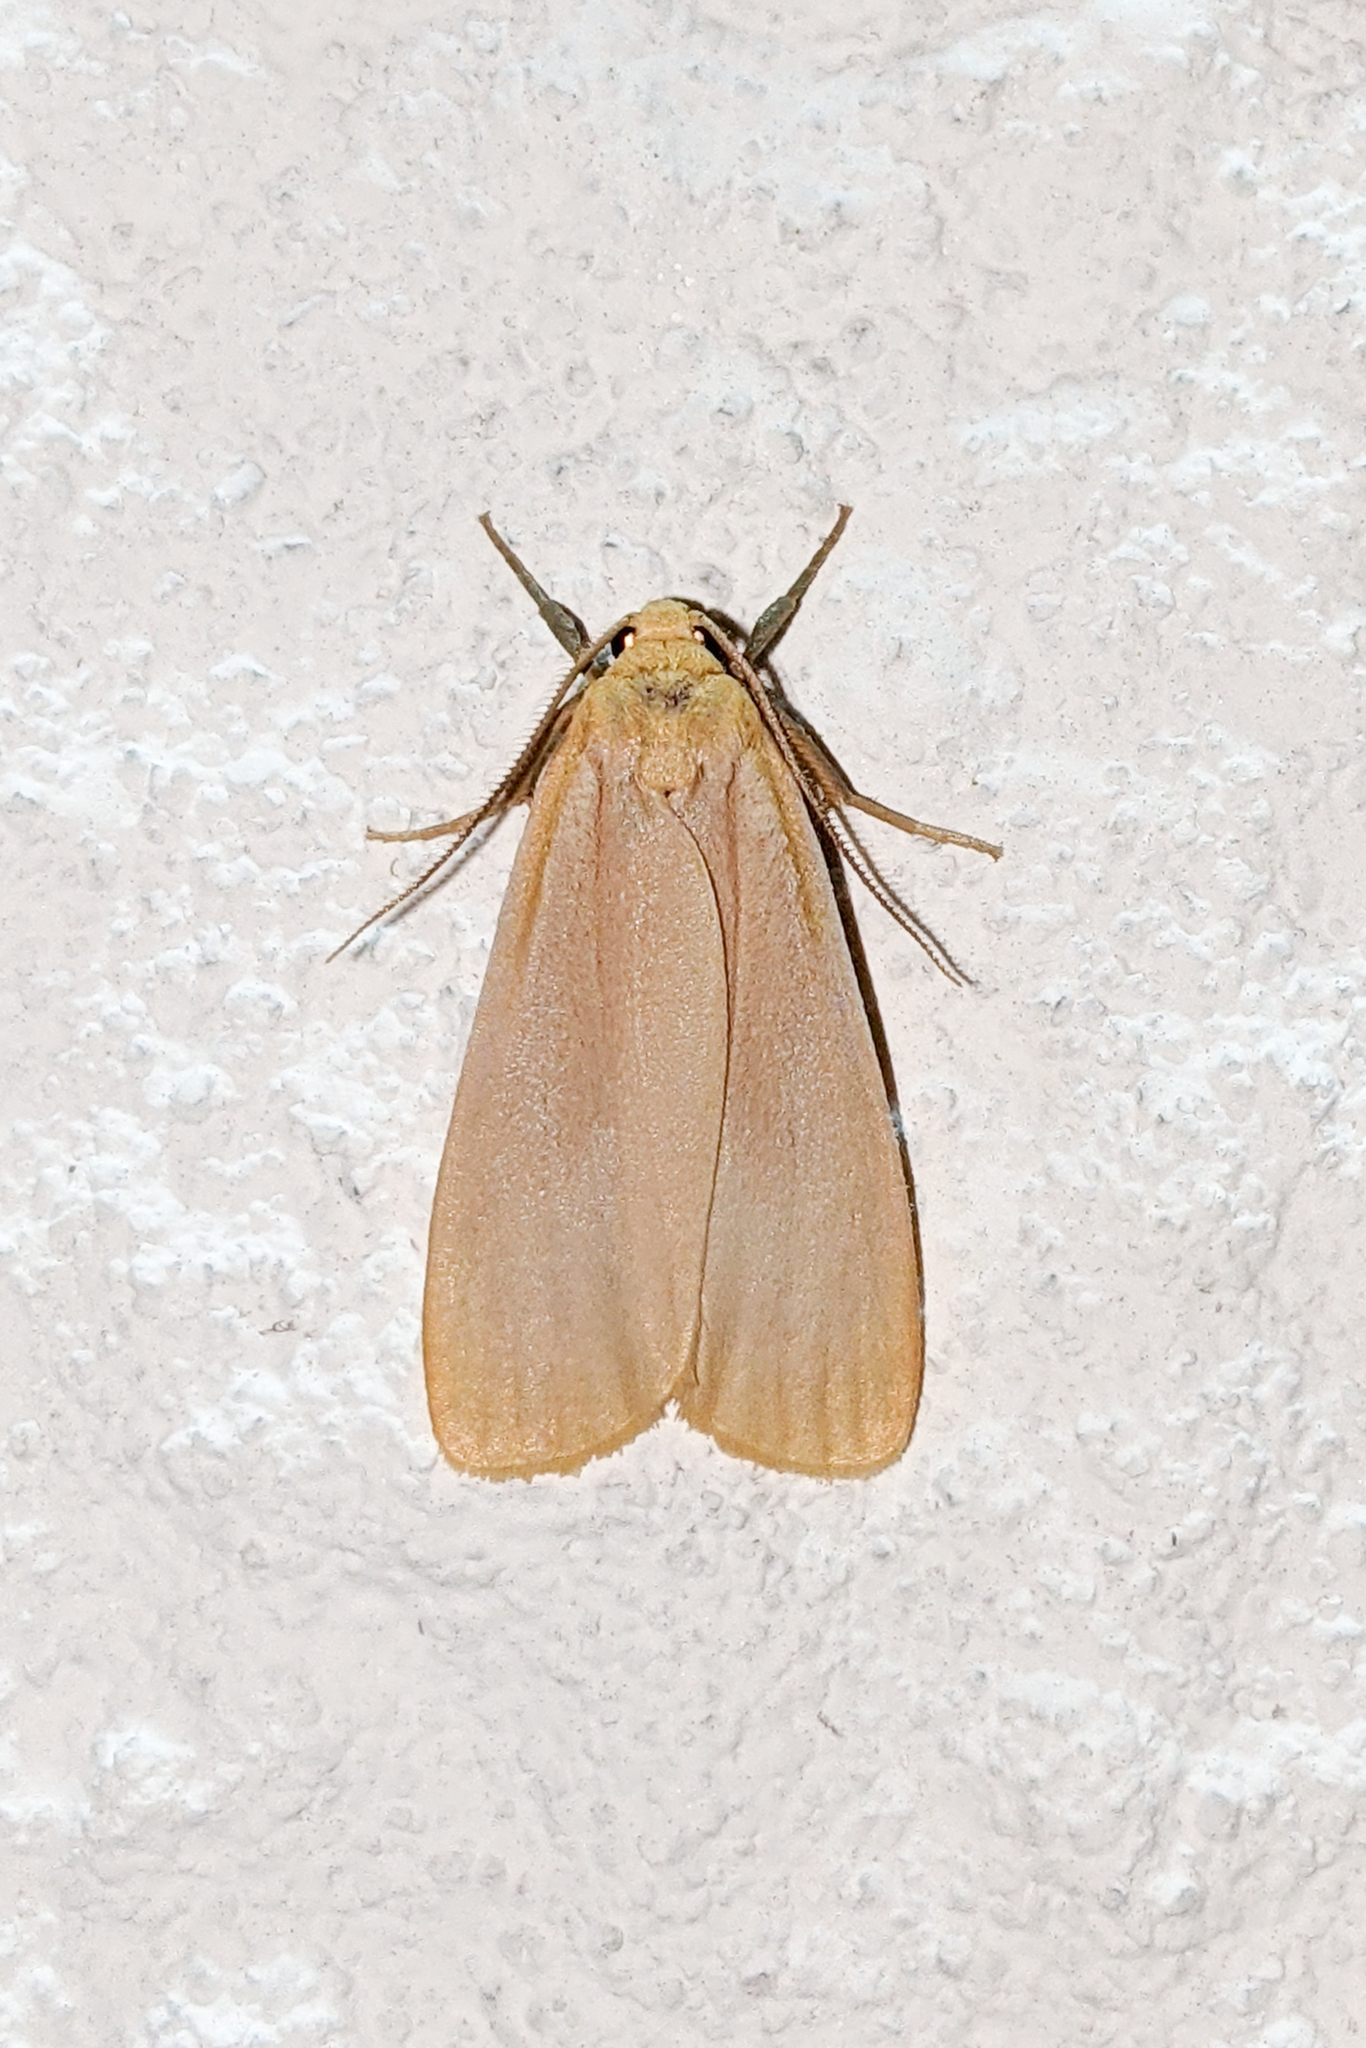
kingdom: Animalia
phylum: Arthropoda
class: Insecta
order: Lepidoptera
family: Erebidae
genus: Katha
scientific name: Katha depressa
